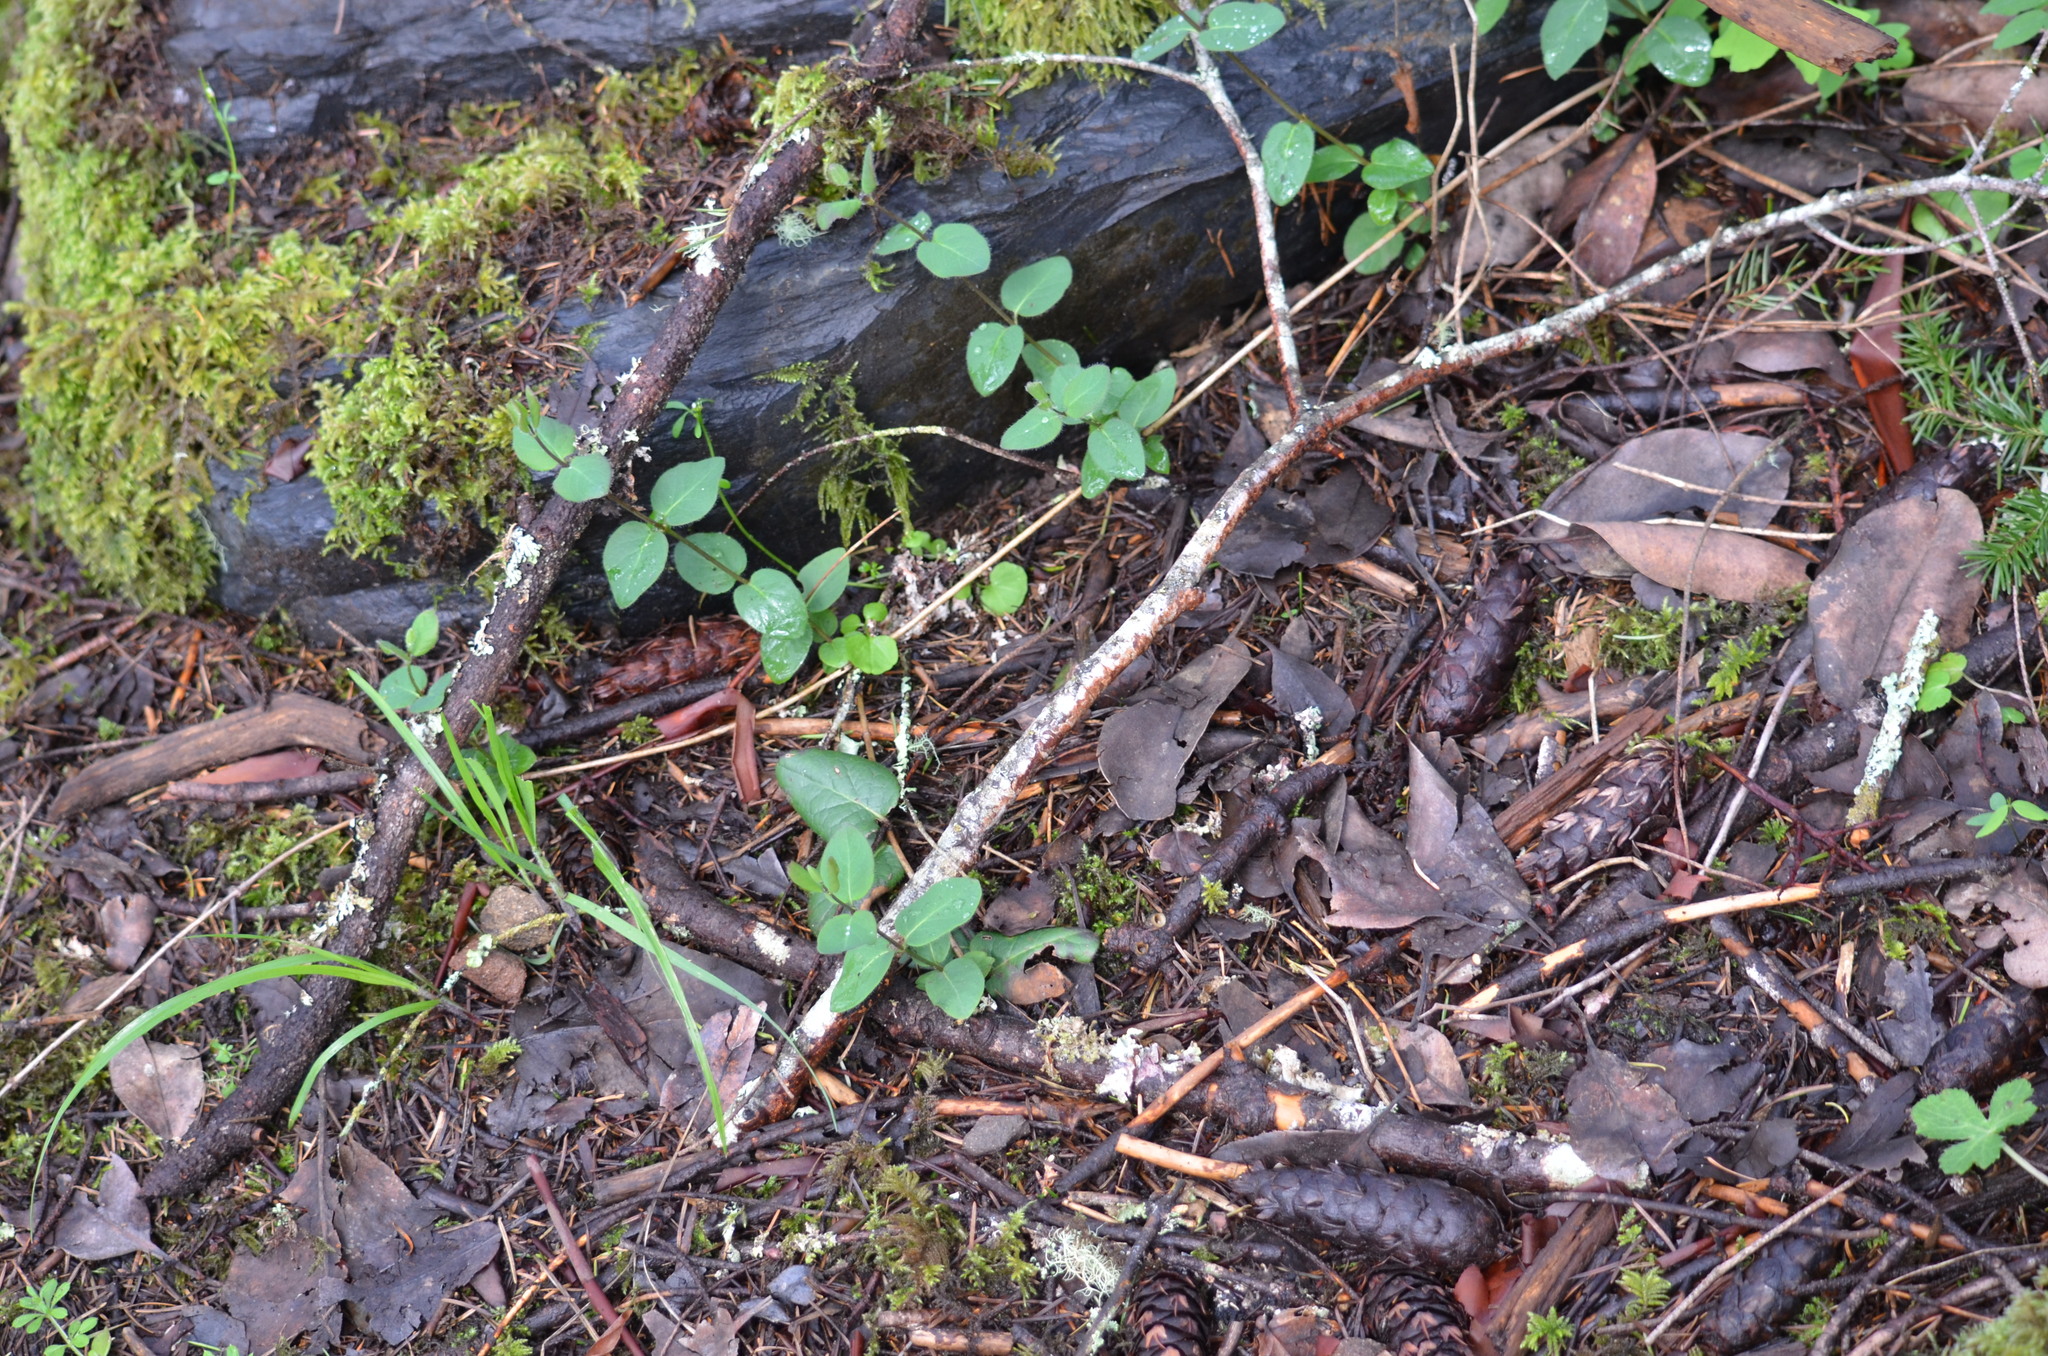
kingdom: Plantae
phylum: Tracheophyta
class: Magnoliopsida
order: Dipsacales
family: Caprifoliaceae
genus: Lonicera
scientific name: Lonicera hispidula
